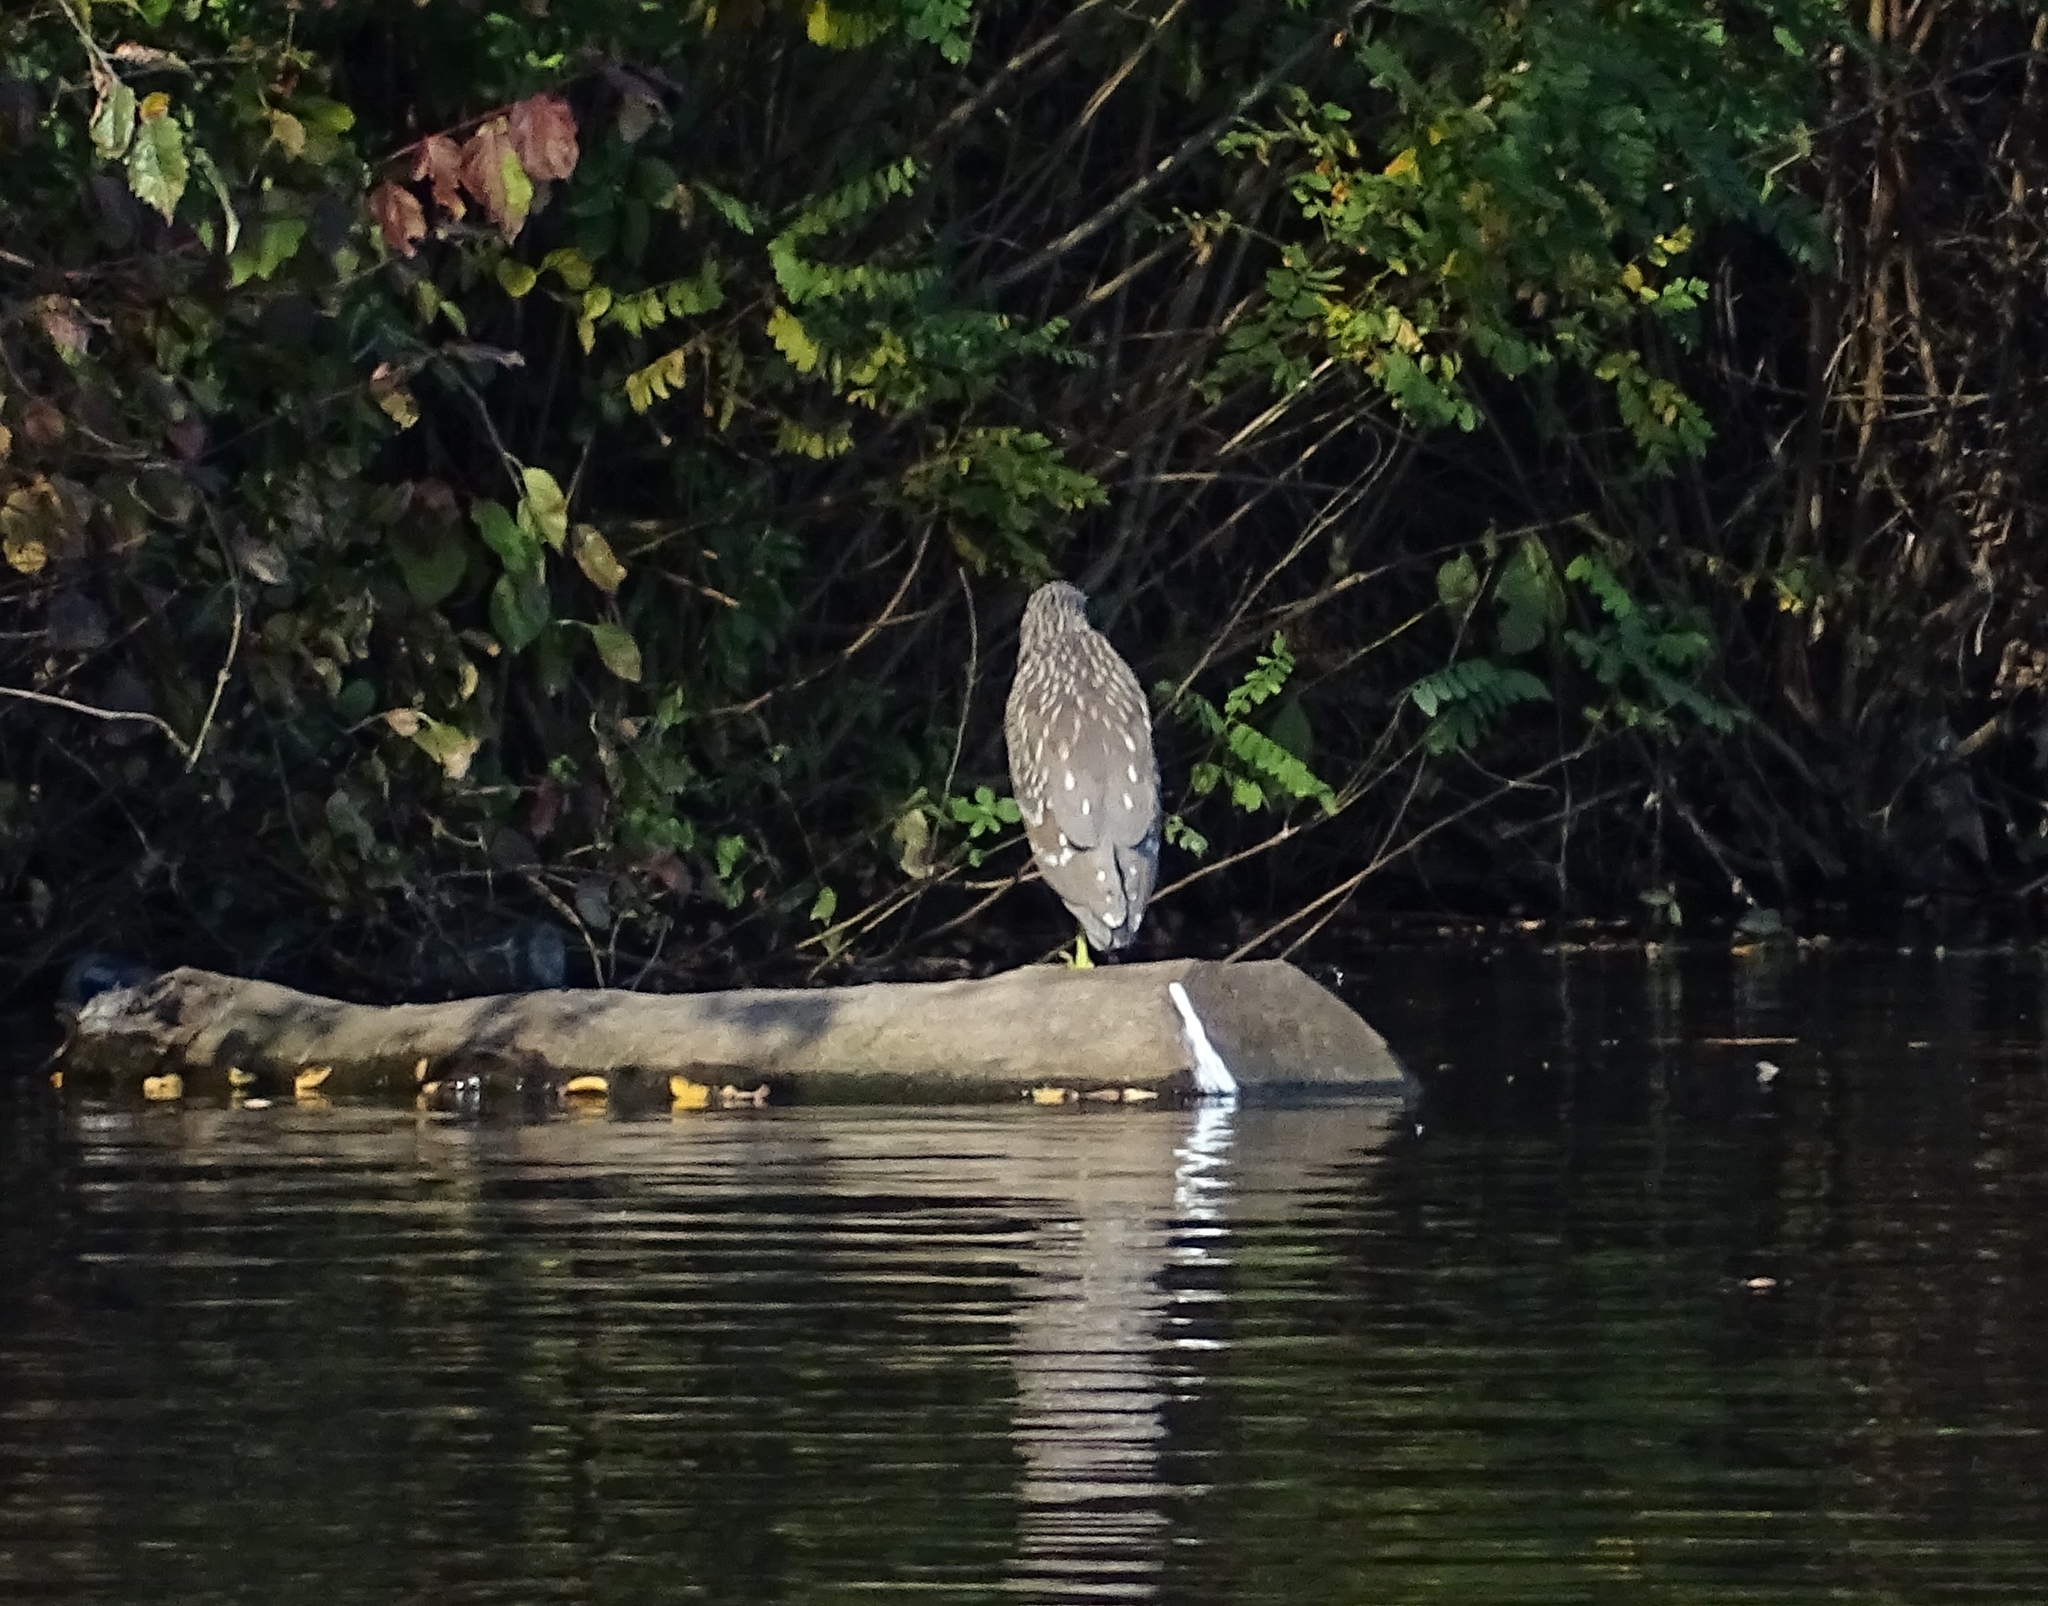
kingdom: Animalia
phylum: Chordata
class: Aves
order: Pelecaniformes
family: Ardeidae
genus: Nycticorax
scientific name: Nycticorax nycticorax
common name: Black-crowned night heron
